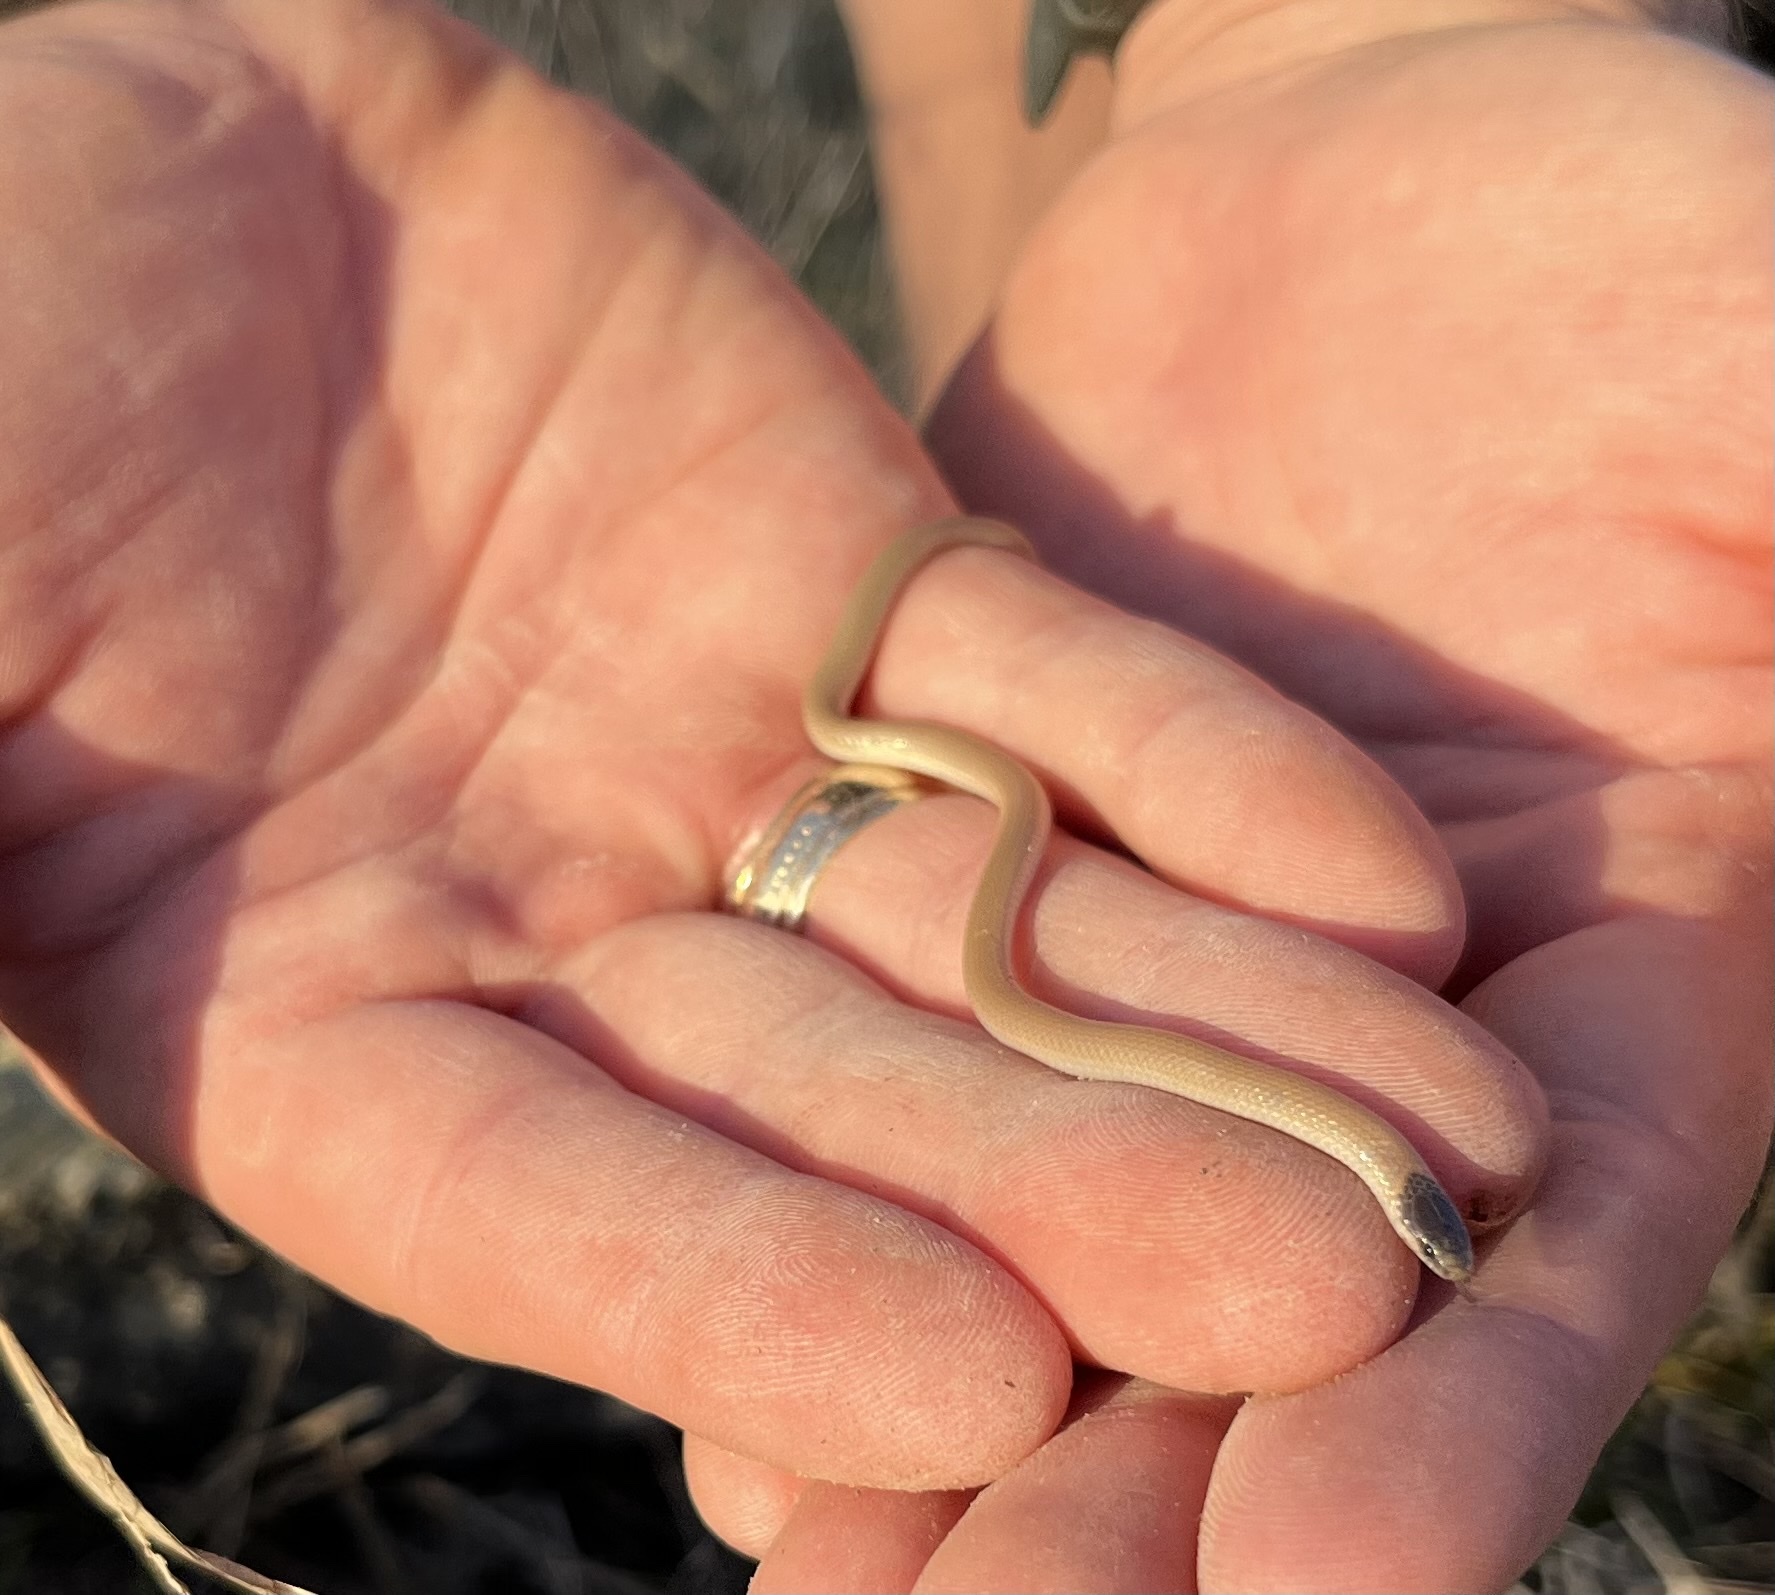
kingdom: Animalia
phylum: Chordata
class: Squamata
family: Colubridae
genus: Tantilla
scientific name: Tantilla nigriceps
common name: Plains blackhead snake
